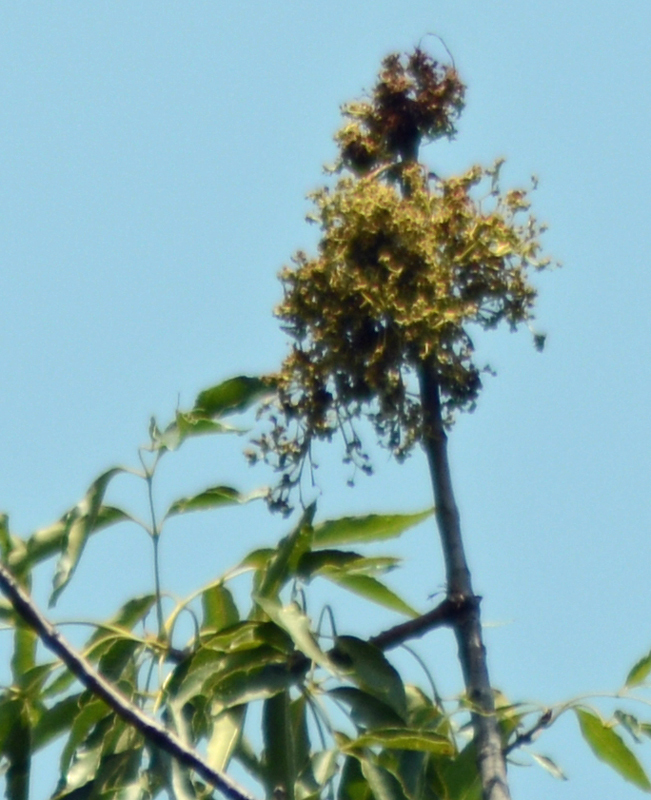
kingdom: Plantae
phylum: Tracheophyta
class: Magnoliopsida
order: Lamiales
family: Oleaceae
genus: Fraxinus
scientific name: Fraxinus uhdei
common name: Shamel ash
